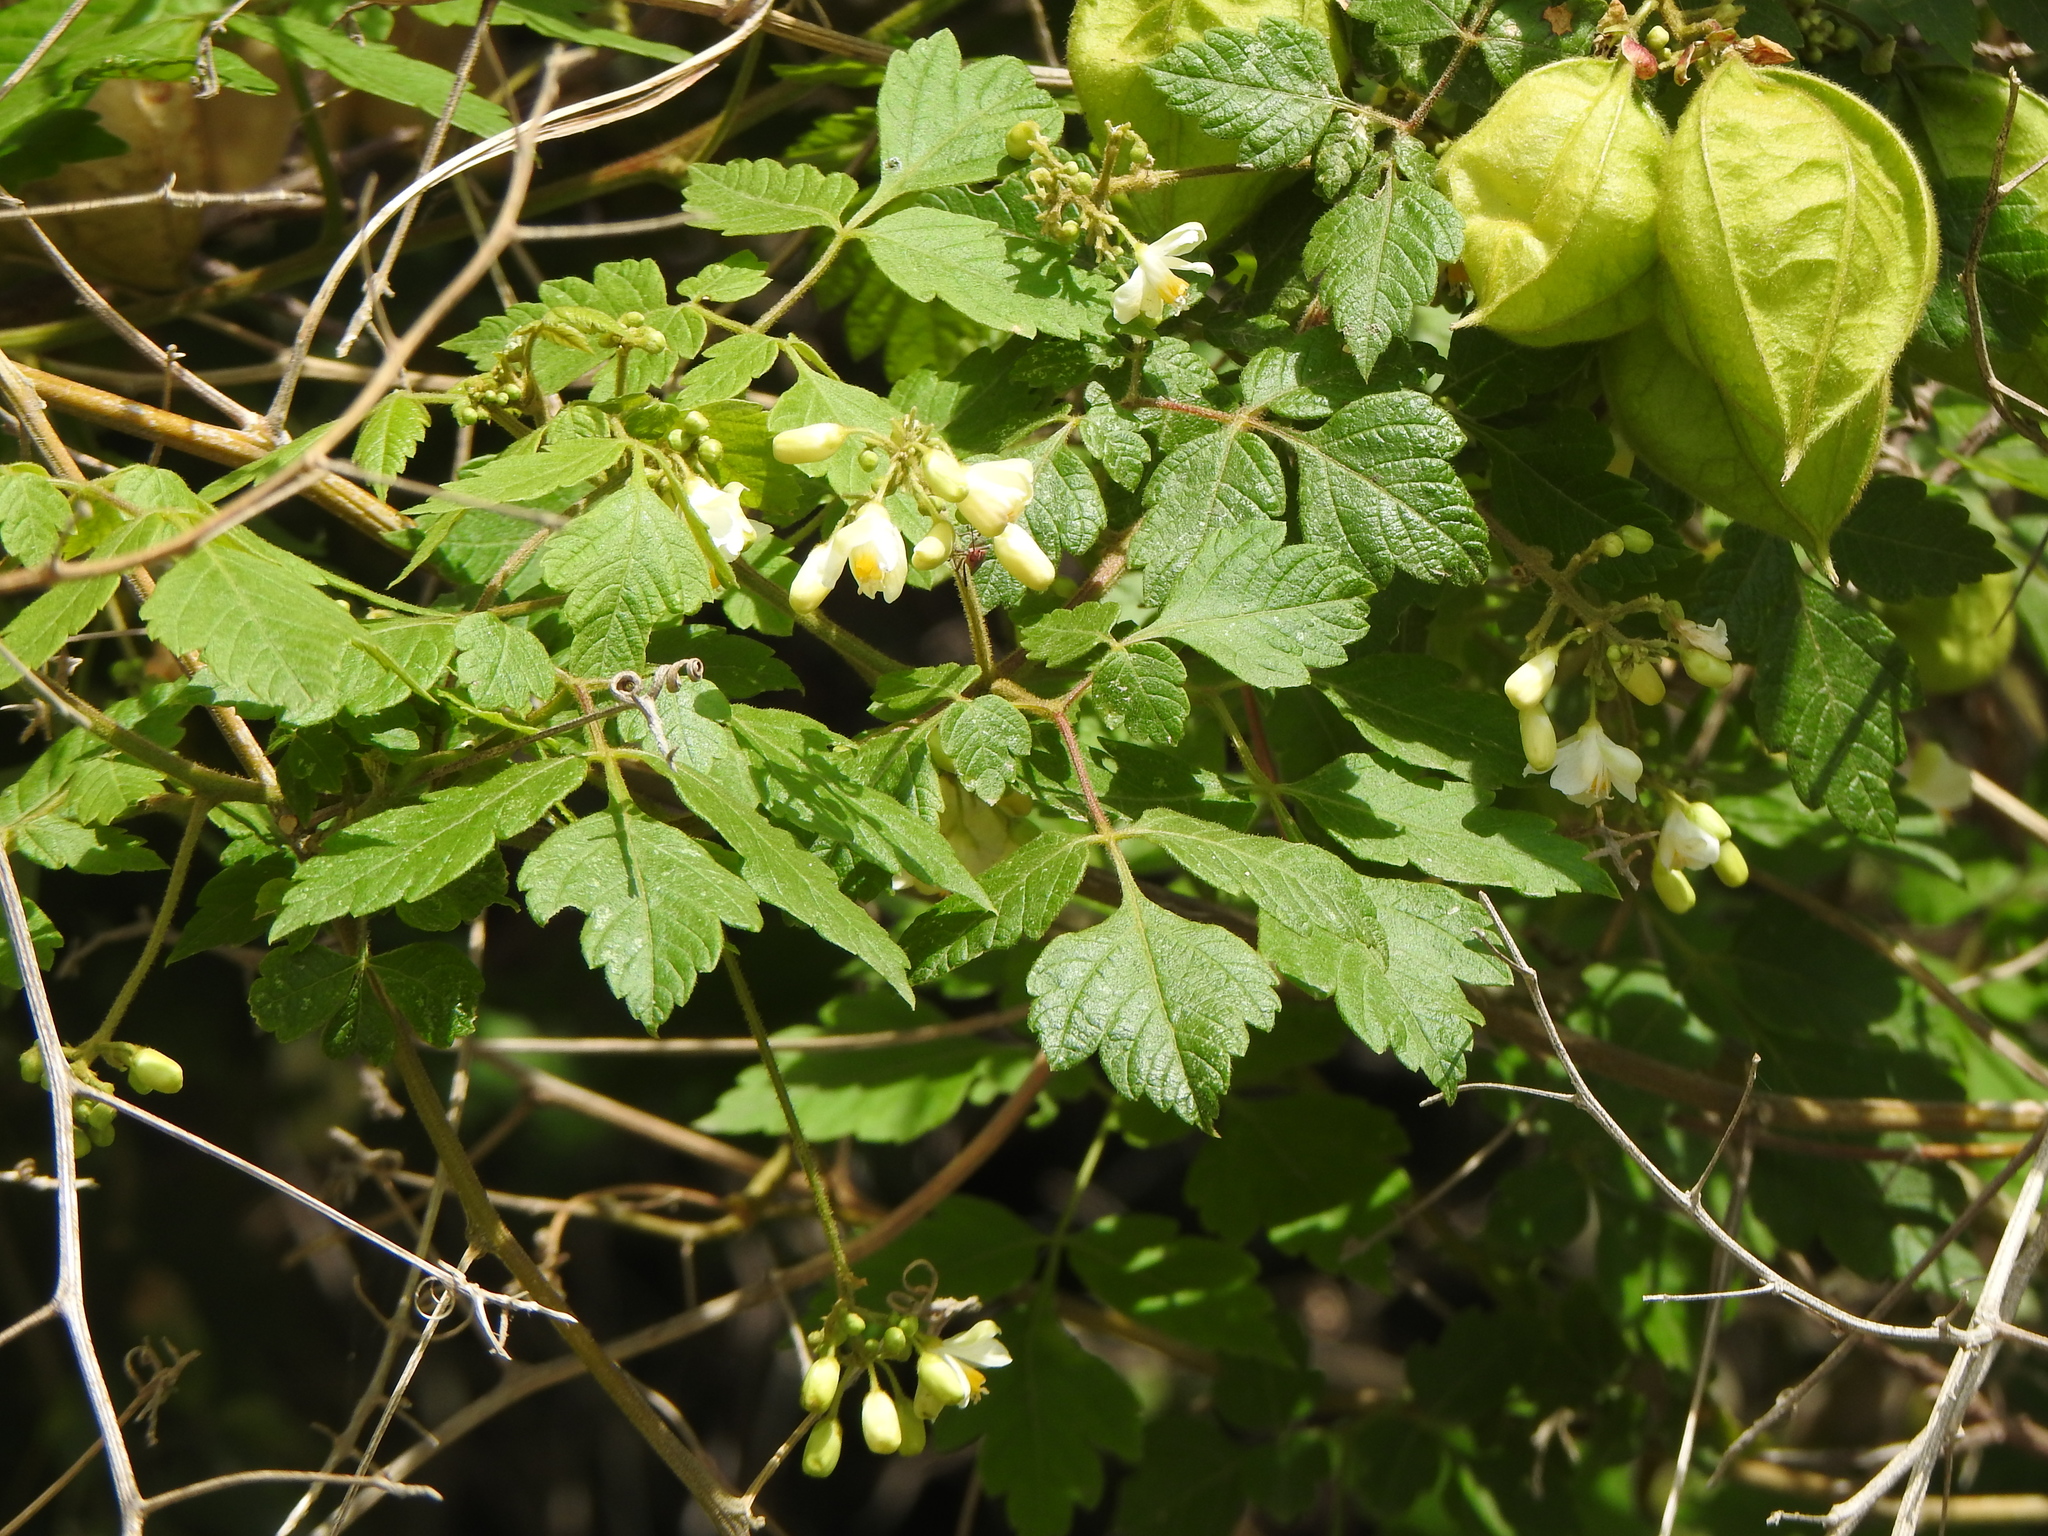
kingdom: Plantae
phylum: Tracheophyta
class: Magnoliopsida
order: Sapindales
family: Sapindaceae
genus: Cardiospermum
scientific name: Cardiospermum grandiflorum
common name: Balloon vine
